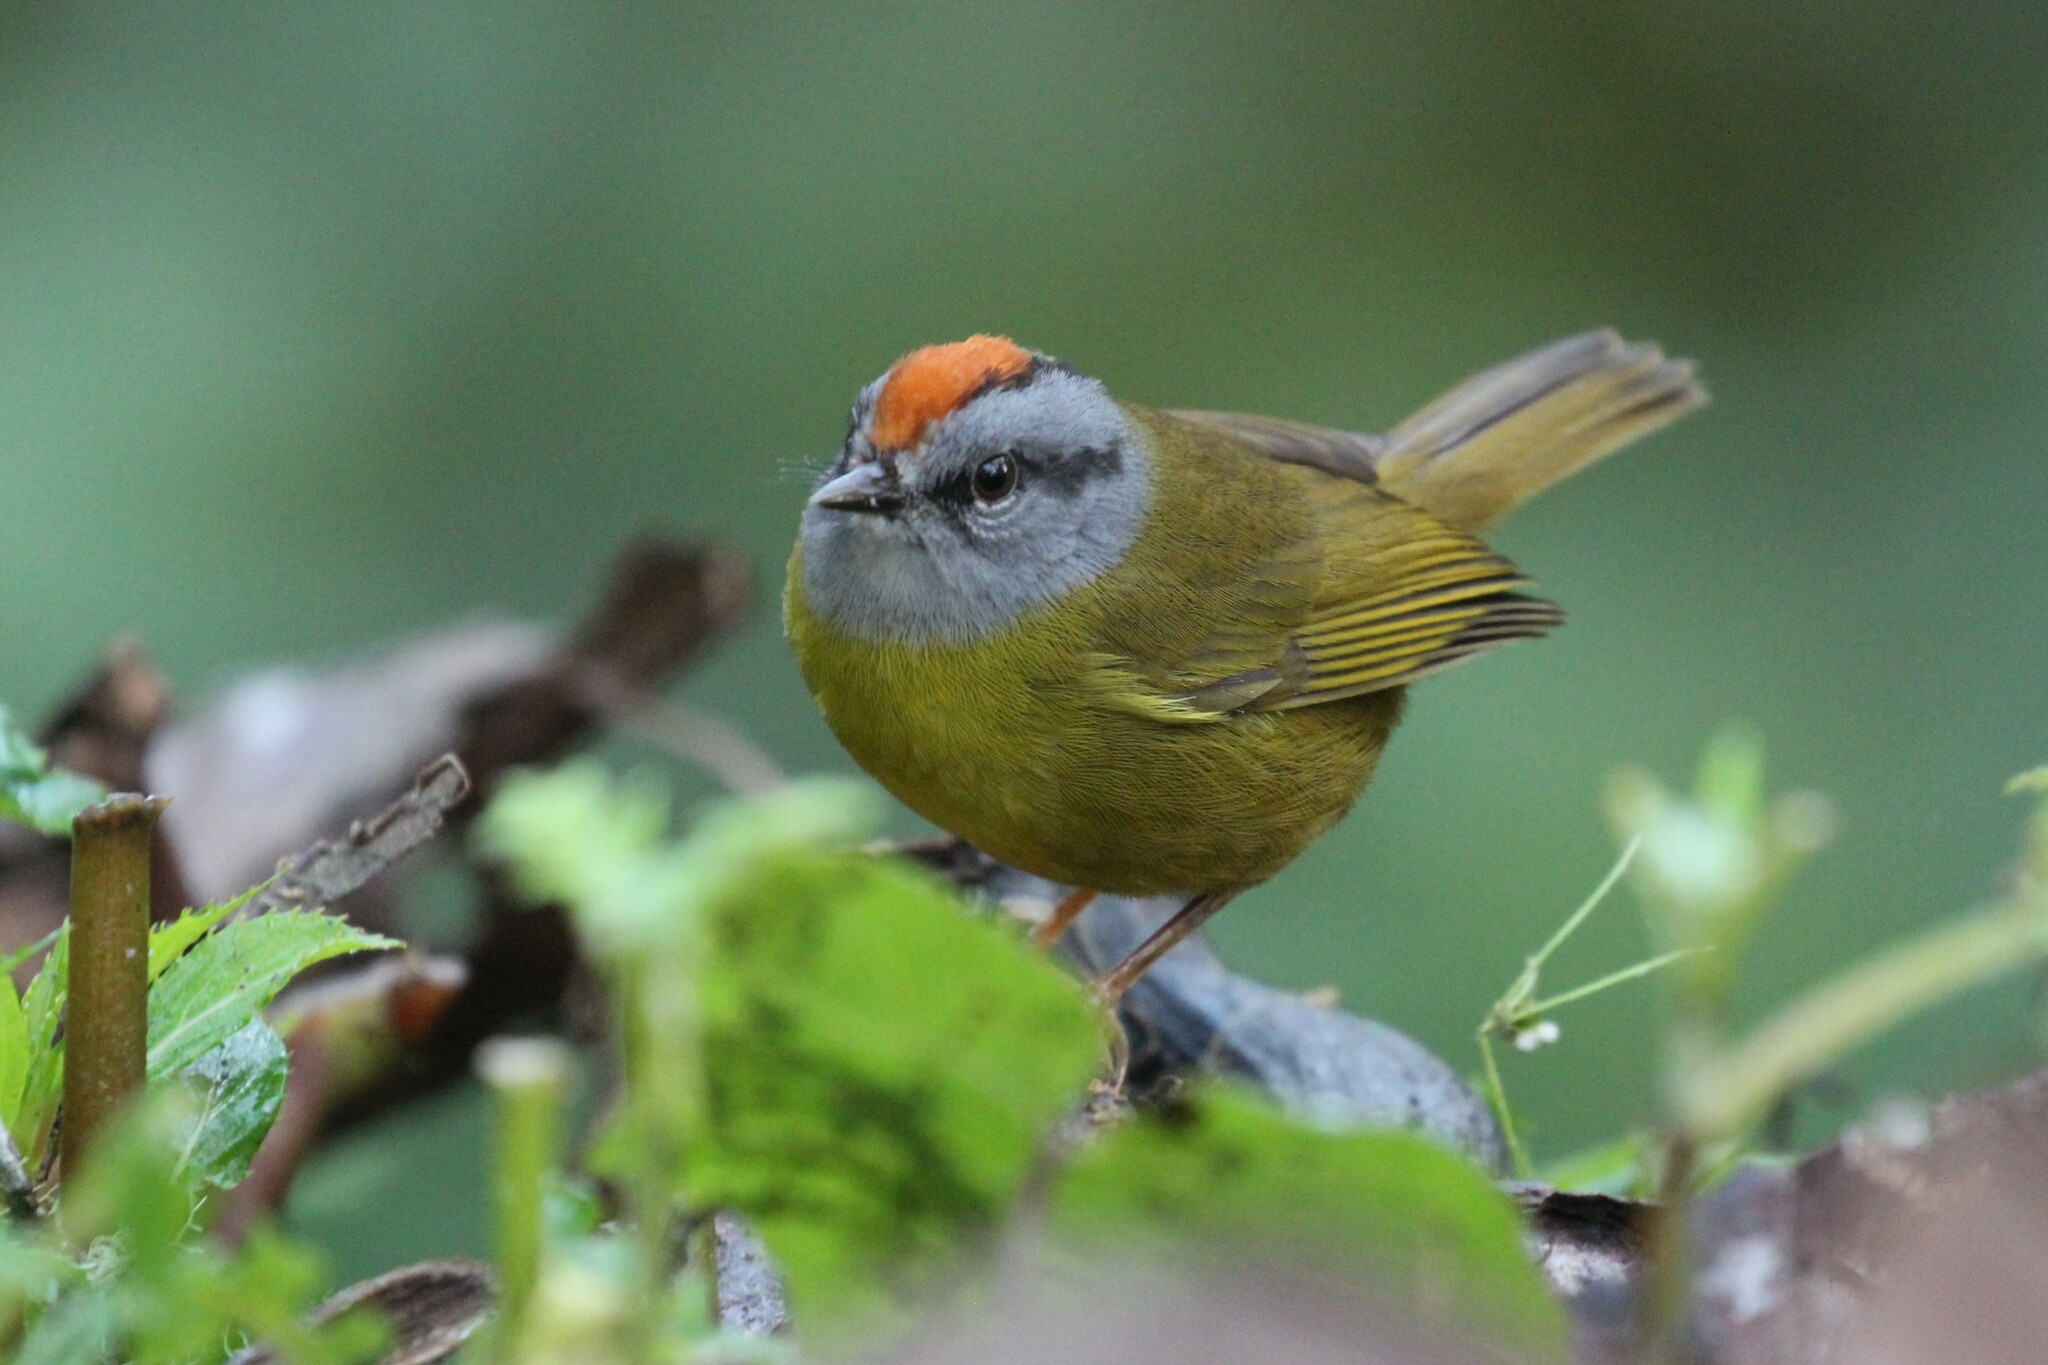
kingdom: Animalia
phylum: Chordata
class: Aves
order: Passeriformes
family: Parulidae
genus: Myiothlypis
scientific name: Myiothlypis coronata
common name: Russet-crowned warbler
